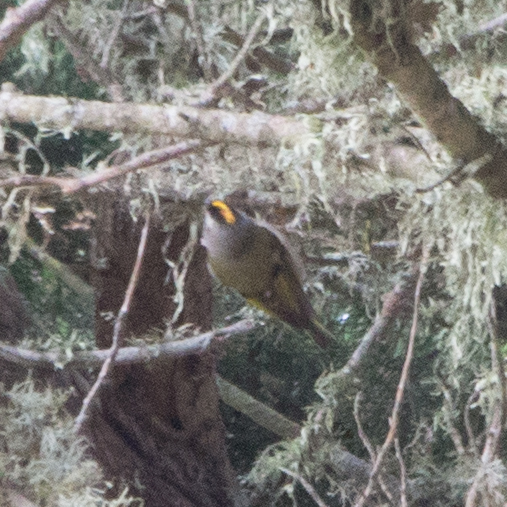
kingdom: Animalia
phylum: Chordata
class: Aves
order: Passeriformes
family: Regulidae
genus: Regulus
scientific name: Regulus satrapa
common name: Golden-crowned kinglet
